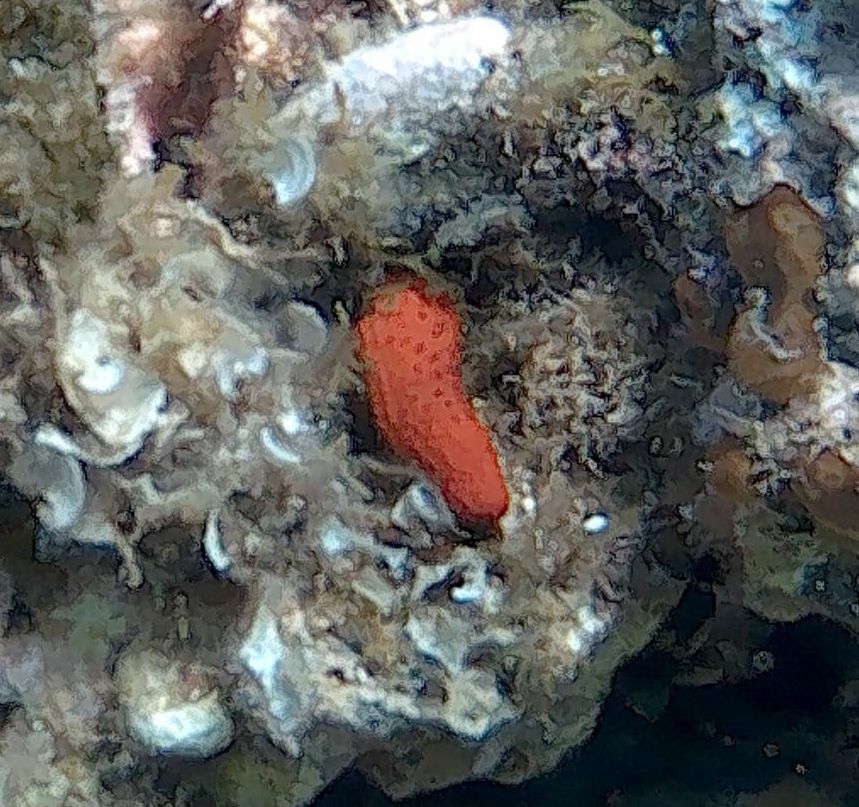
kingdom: Animalia
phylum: Echinodermata
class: Asteroidea
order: Spinulosida
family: Echinasteridae
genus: Echinaster
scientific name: Echinaster sepositus
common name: Red starfish
